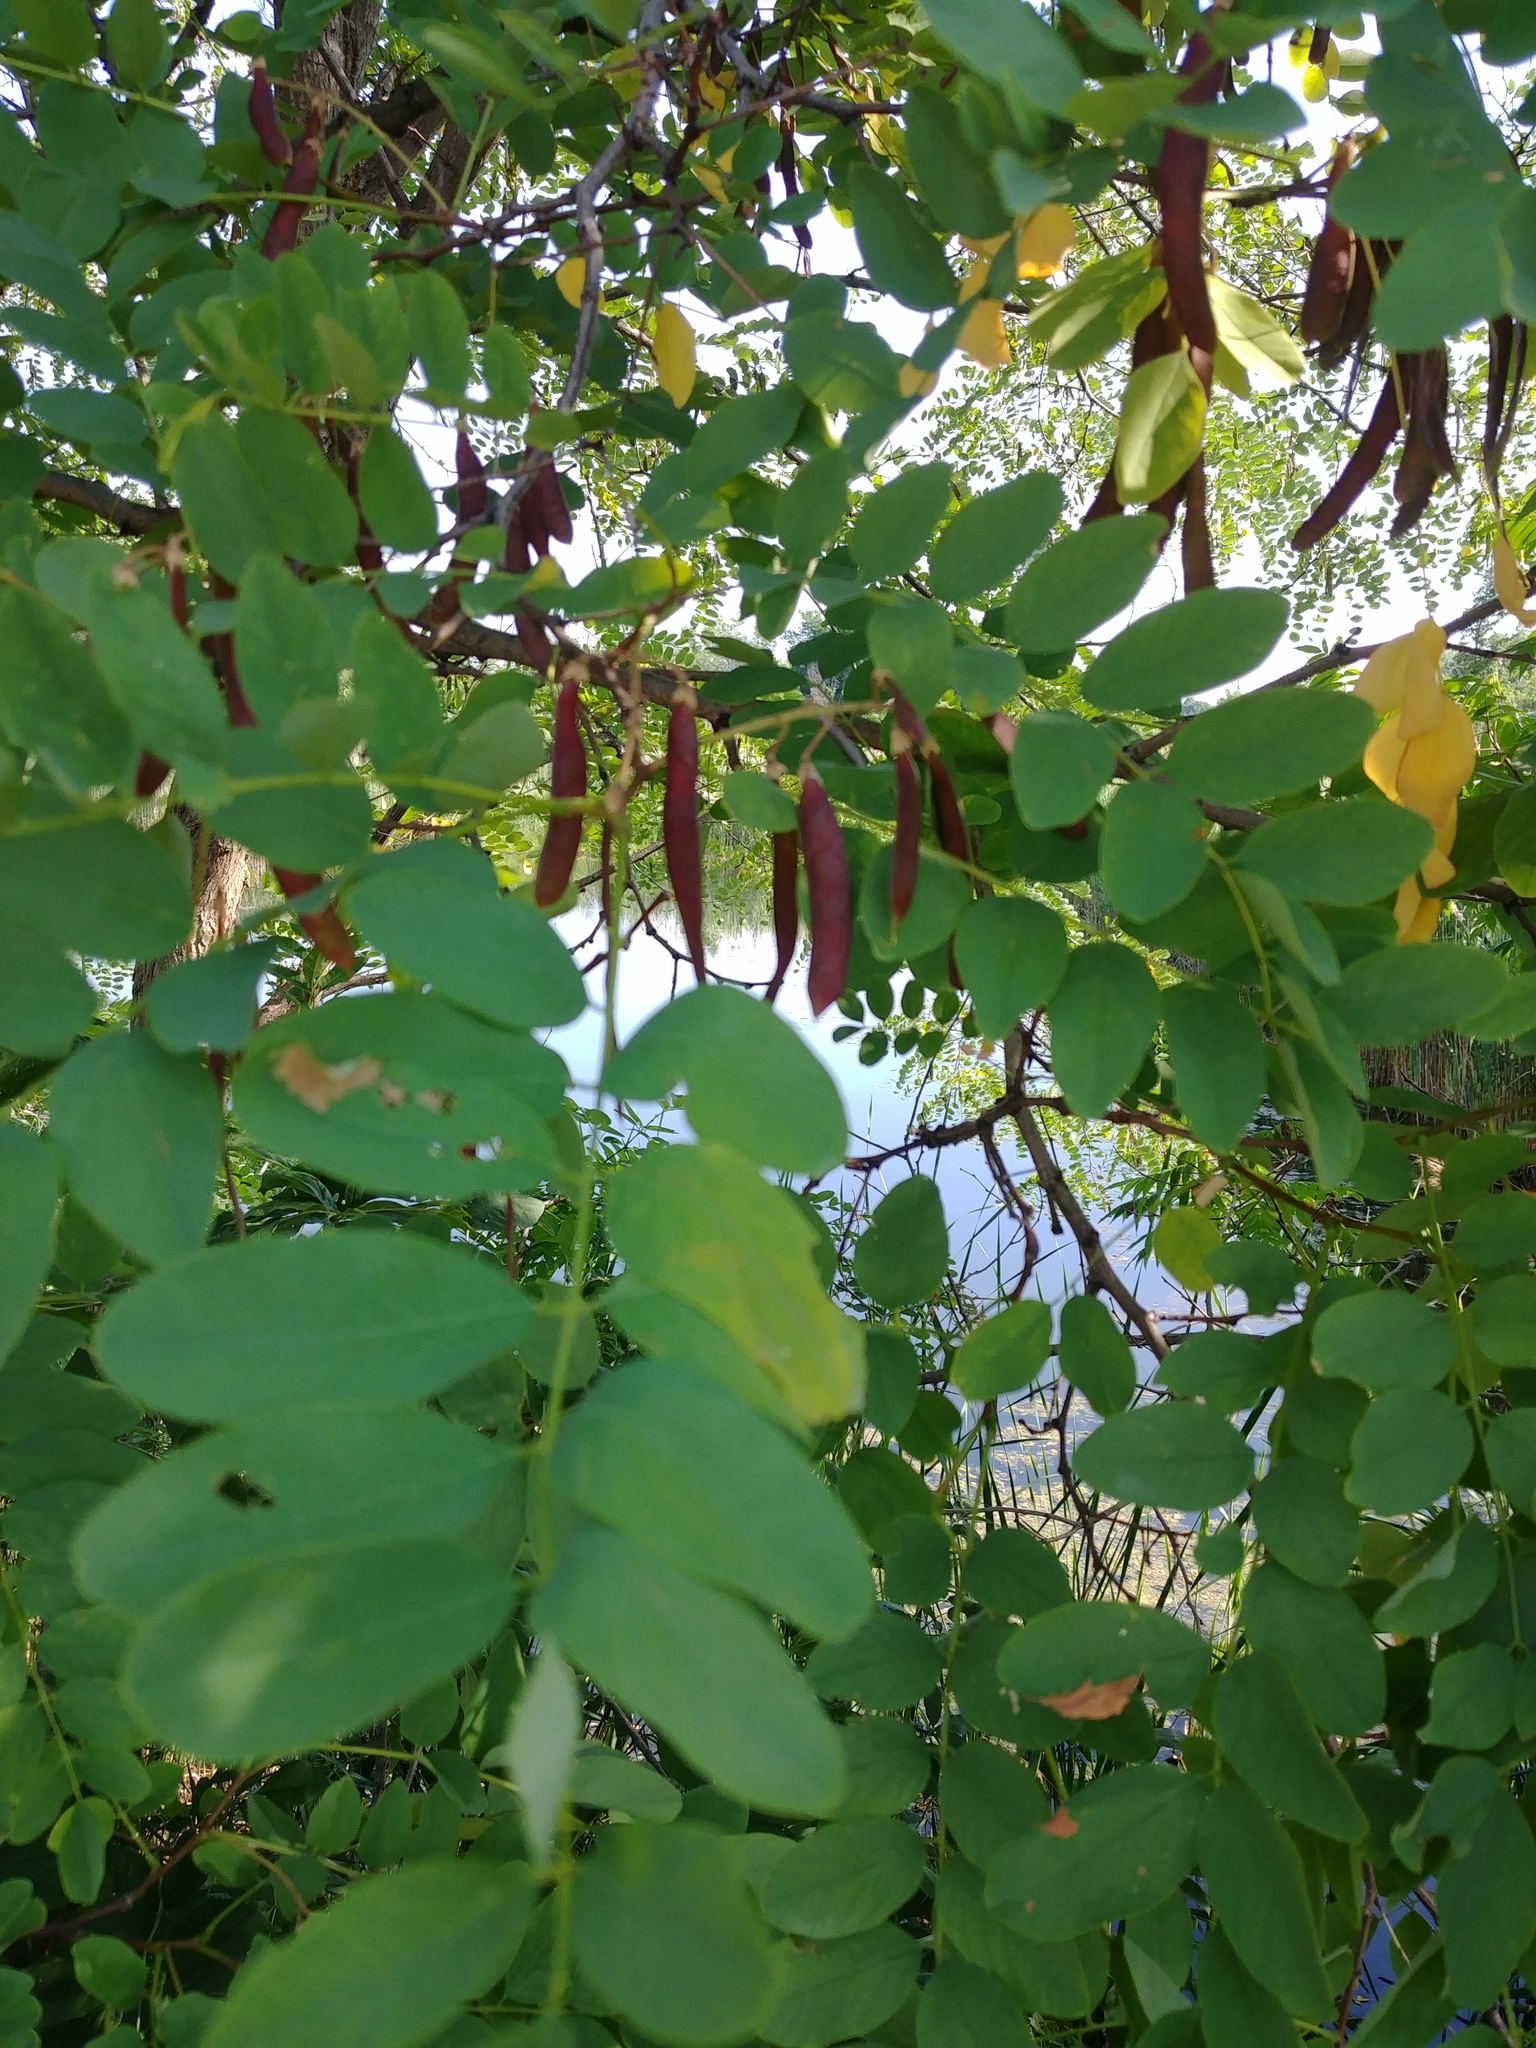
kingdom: Plantae
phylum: Tracheophyta
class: Magnoliopsida
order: Fabales
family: Fabaceae
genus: Robinia
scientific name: Robinia pseudoacacia
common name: Black locust
